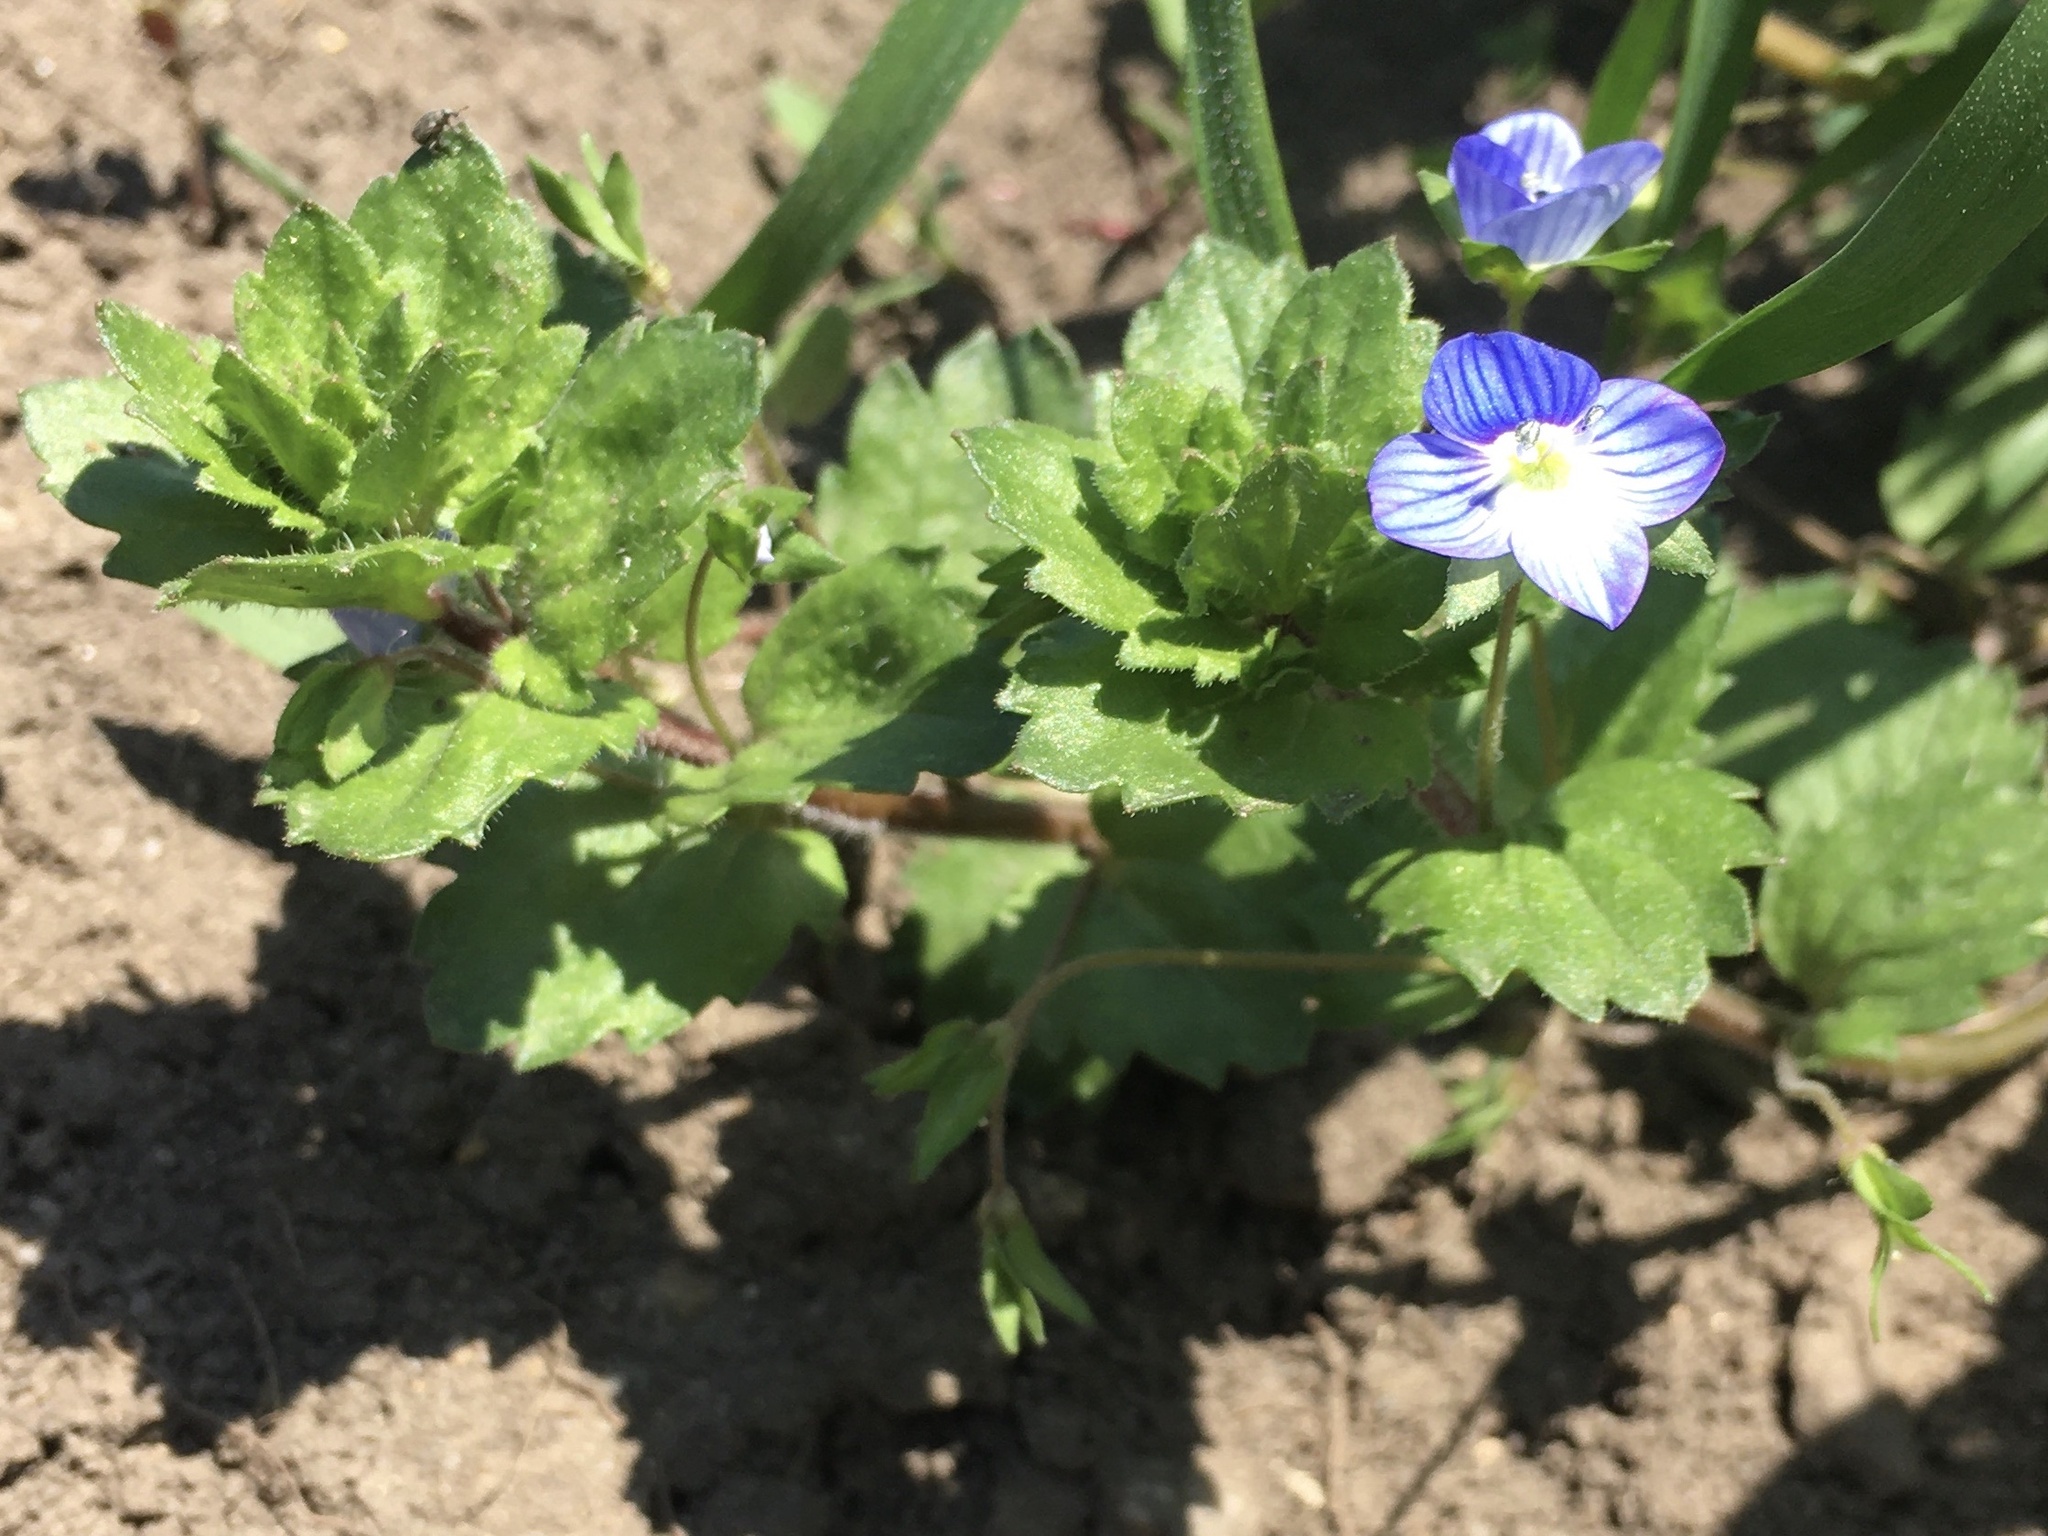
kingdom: Plantae
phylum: Tracheophyta
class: Magnoliopsida
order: Lamiales
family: Plantaginaceae
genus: Veronica
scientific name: Veronica persica
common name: Common field-speedwell
